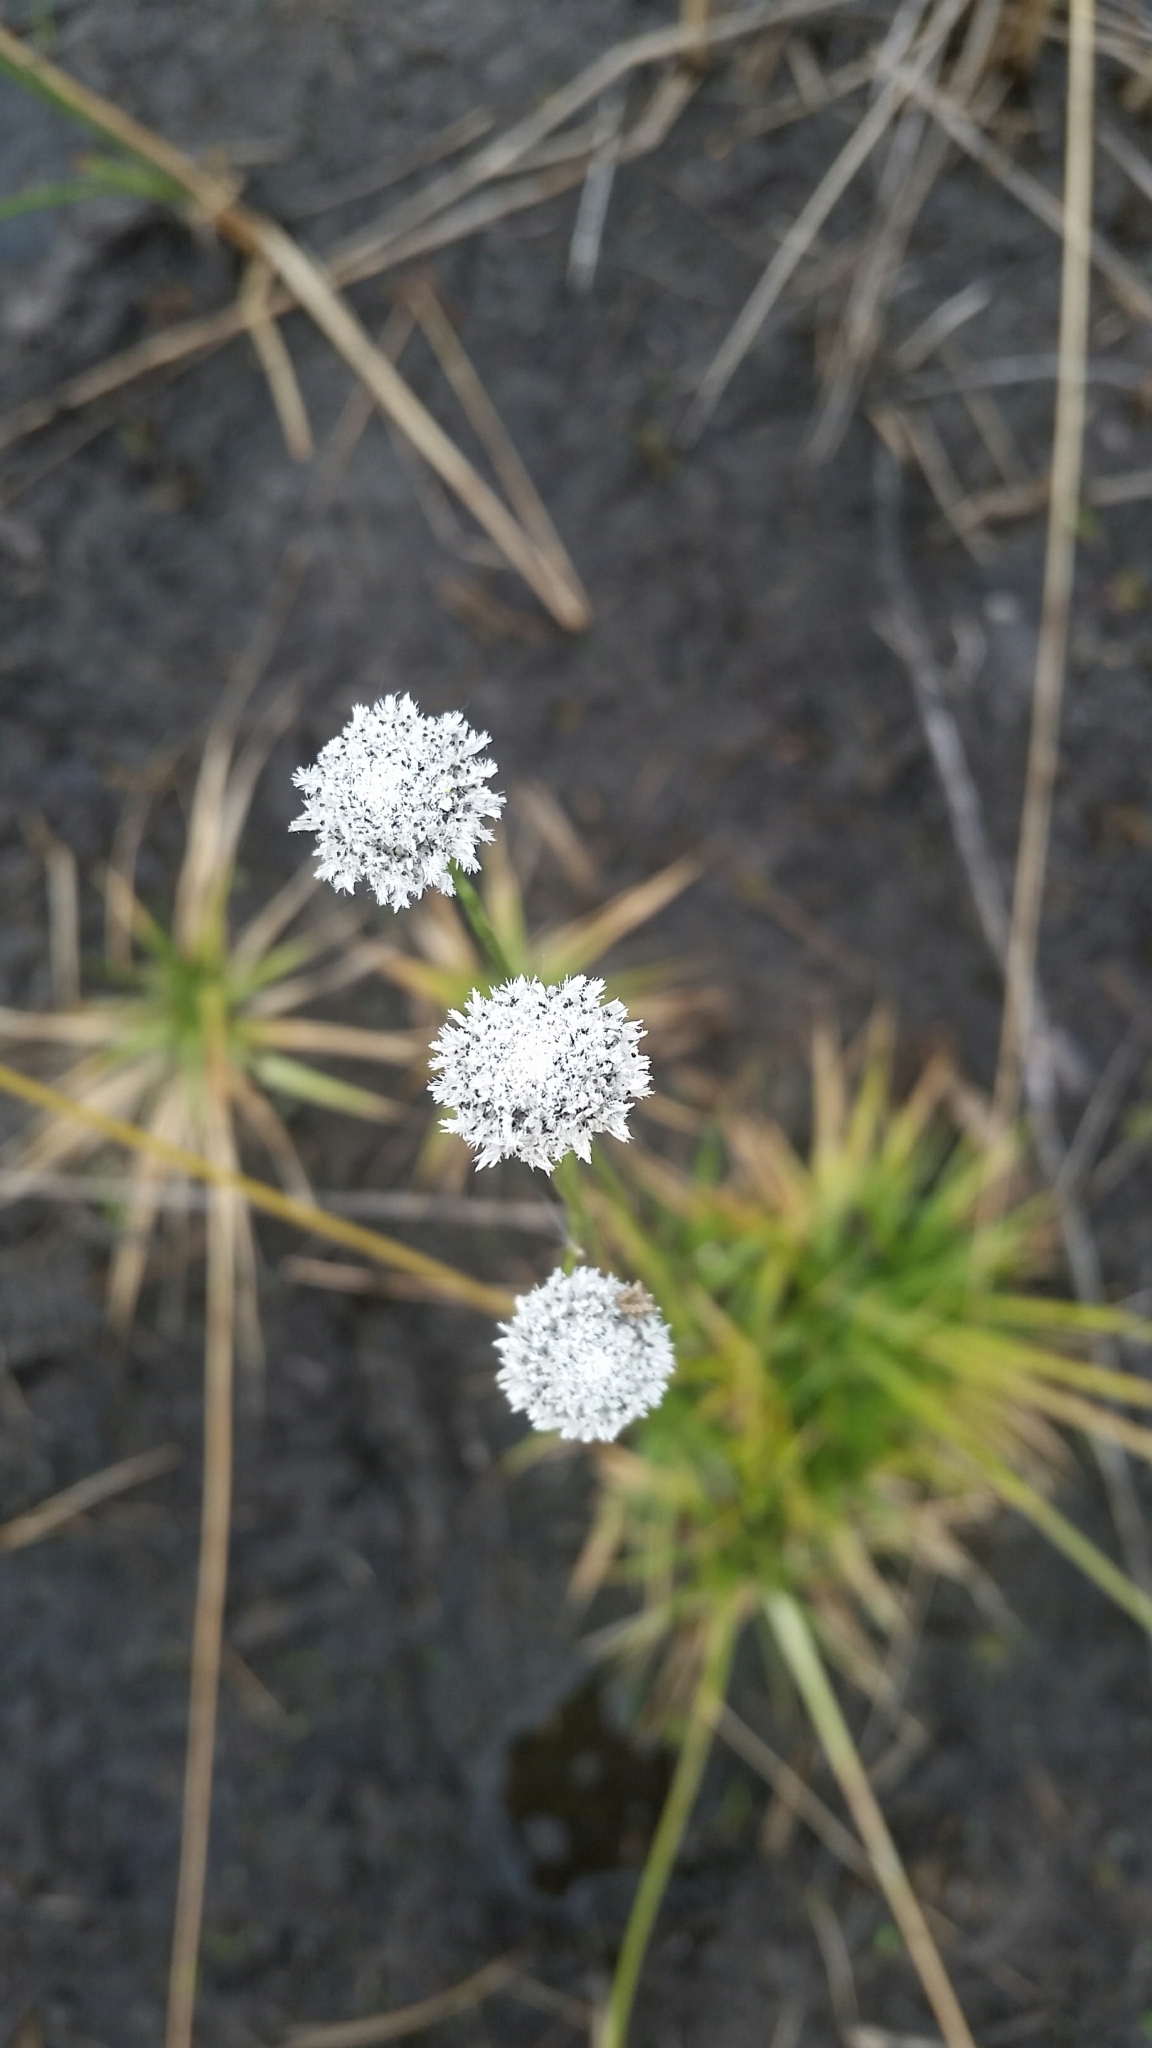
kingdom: Plantae
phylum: Tracheophyta
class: Liliopsida
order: Poales
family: Eriocaulaceae
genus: Eriocaulon
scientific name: Eriocaulon compressum
